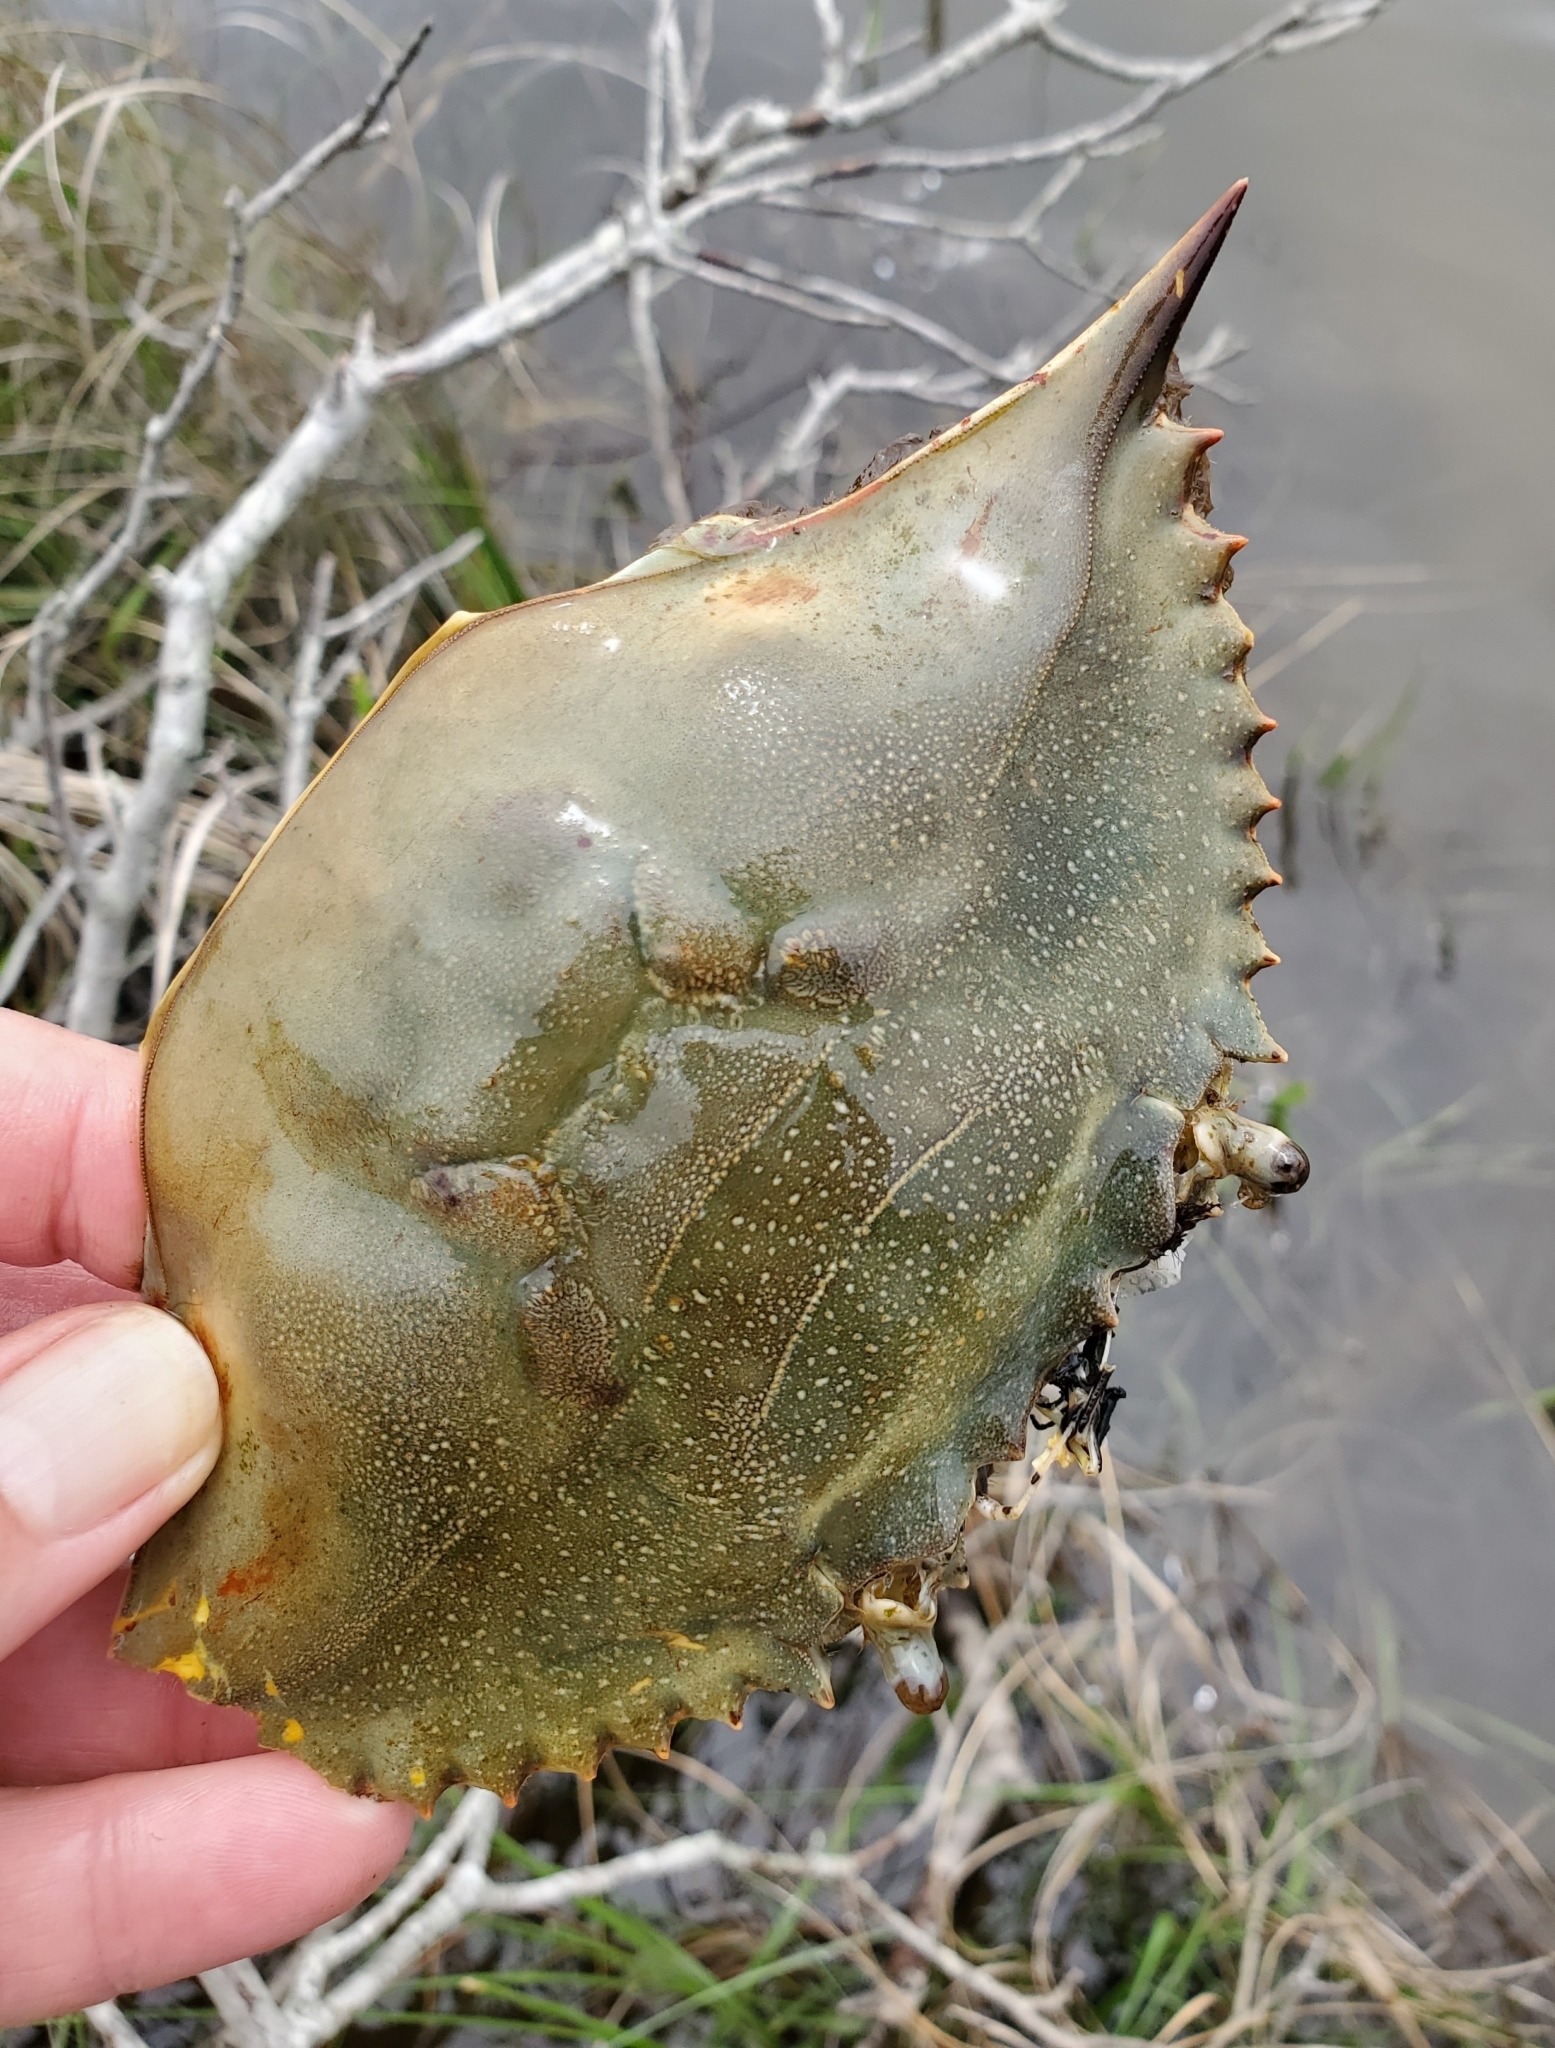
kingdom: Animalia
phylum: Arthropoda
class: Malacostraca
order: Decapoda
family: Portunidae
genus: Callinectes
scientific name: Callinectes sapidus
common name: Blue crab
